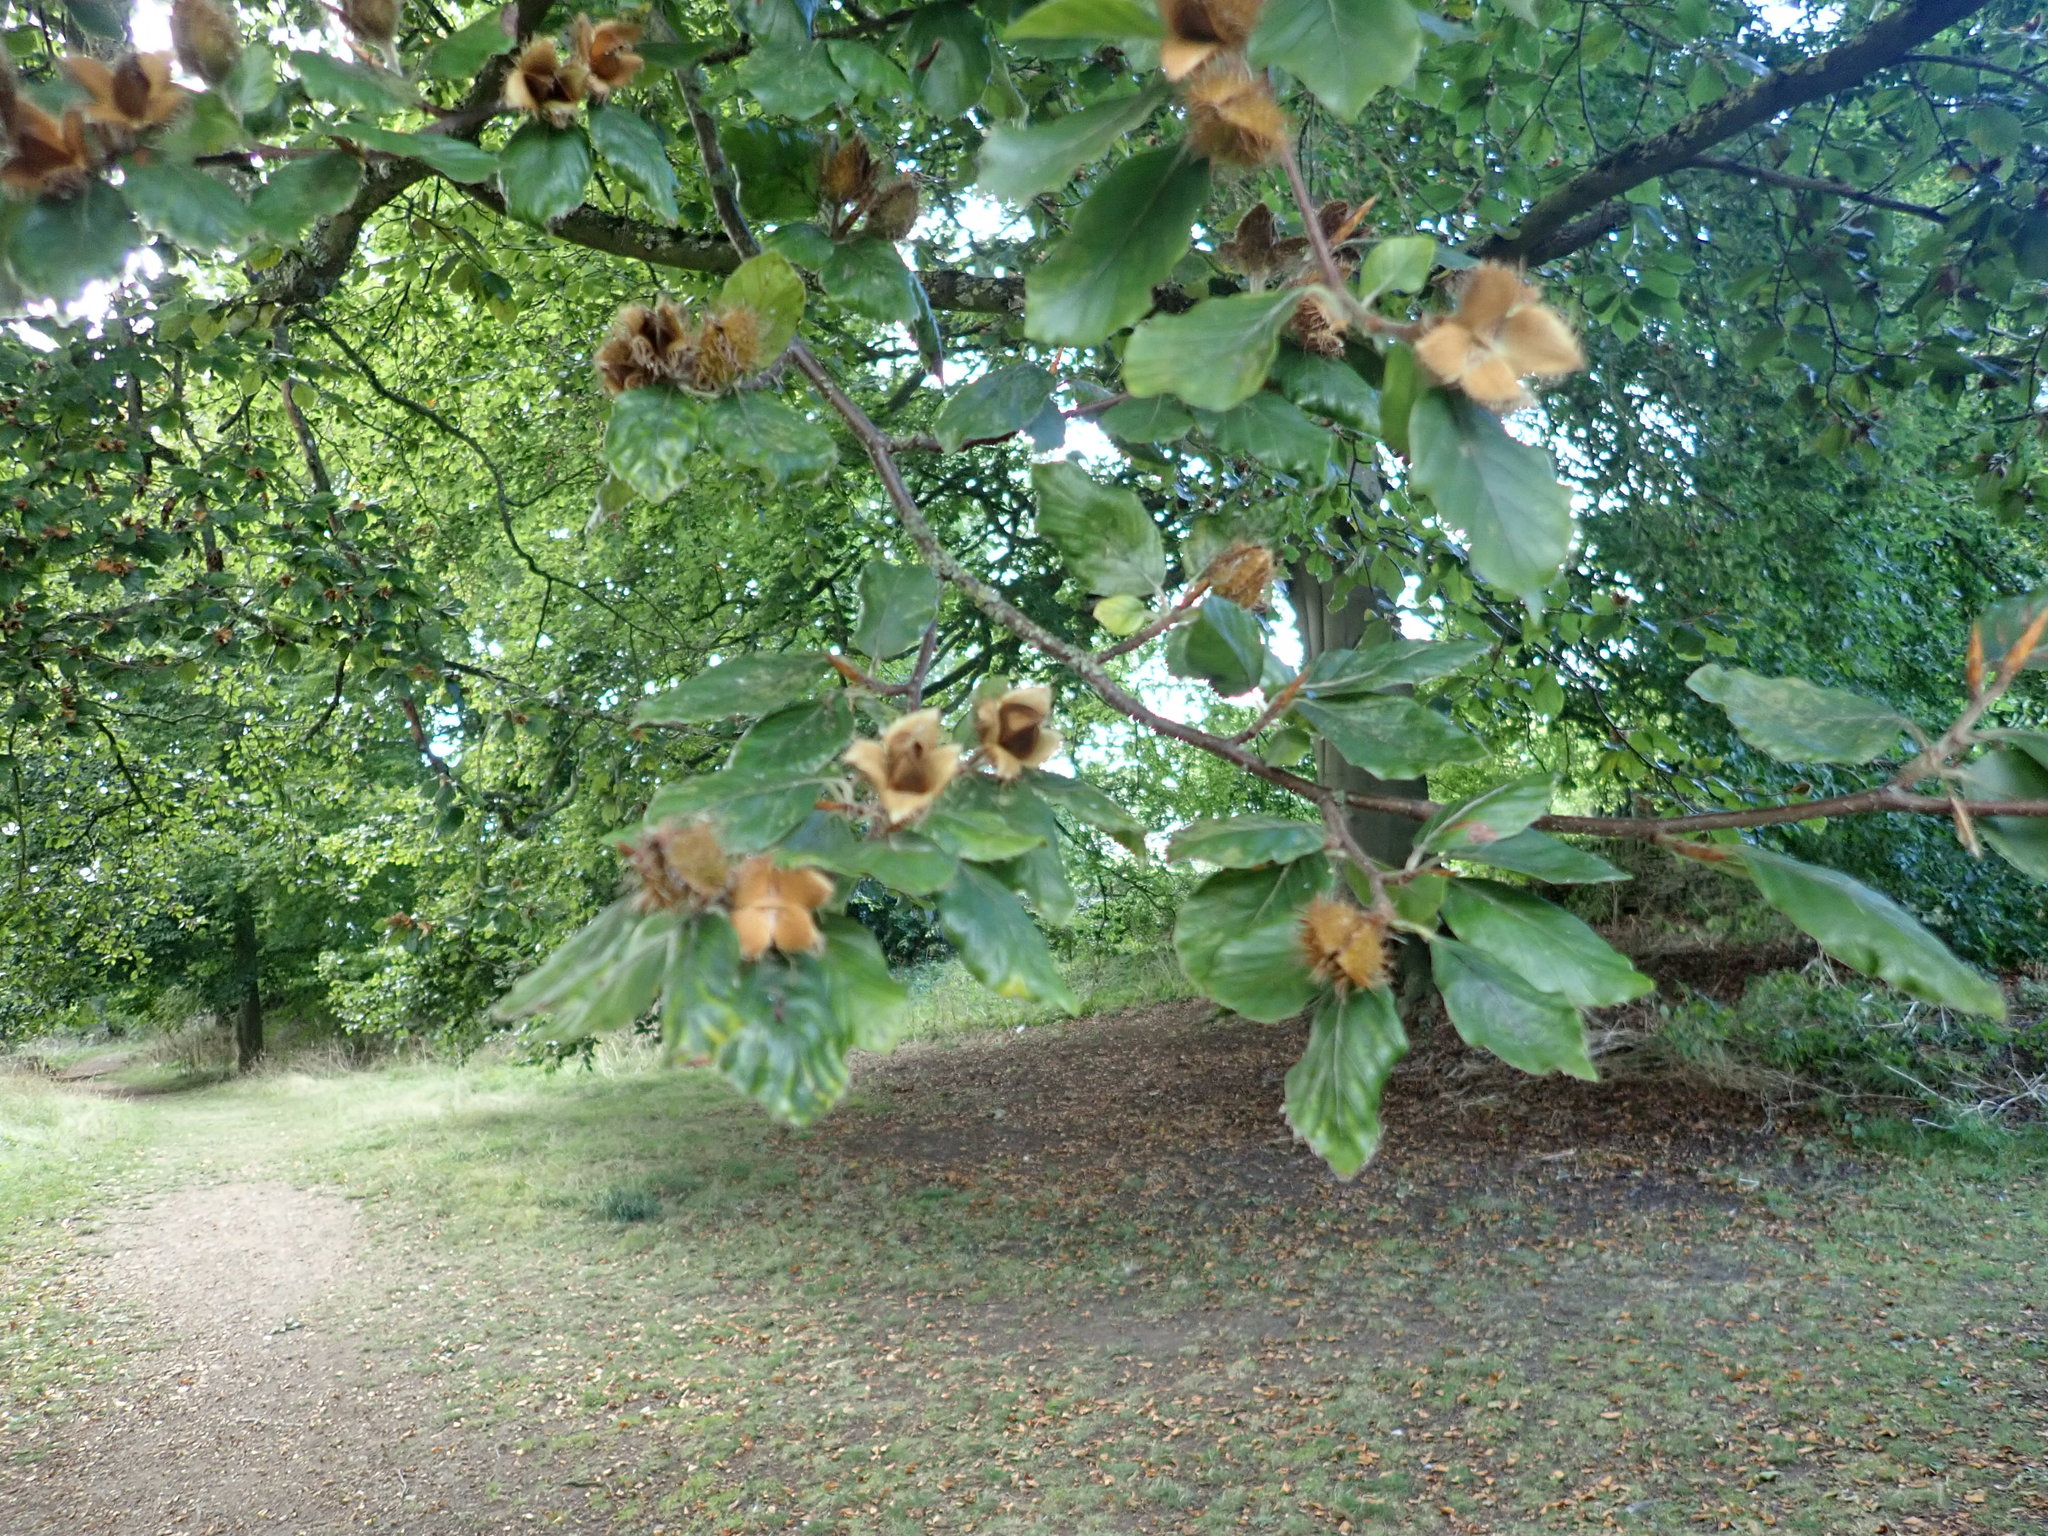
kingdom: Plantae
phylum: Tracheophyta
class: Magnoliopsida
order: Fagales
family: Fagaceae
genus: Fagus
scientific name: Fagus sylvatica
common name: Beech
